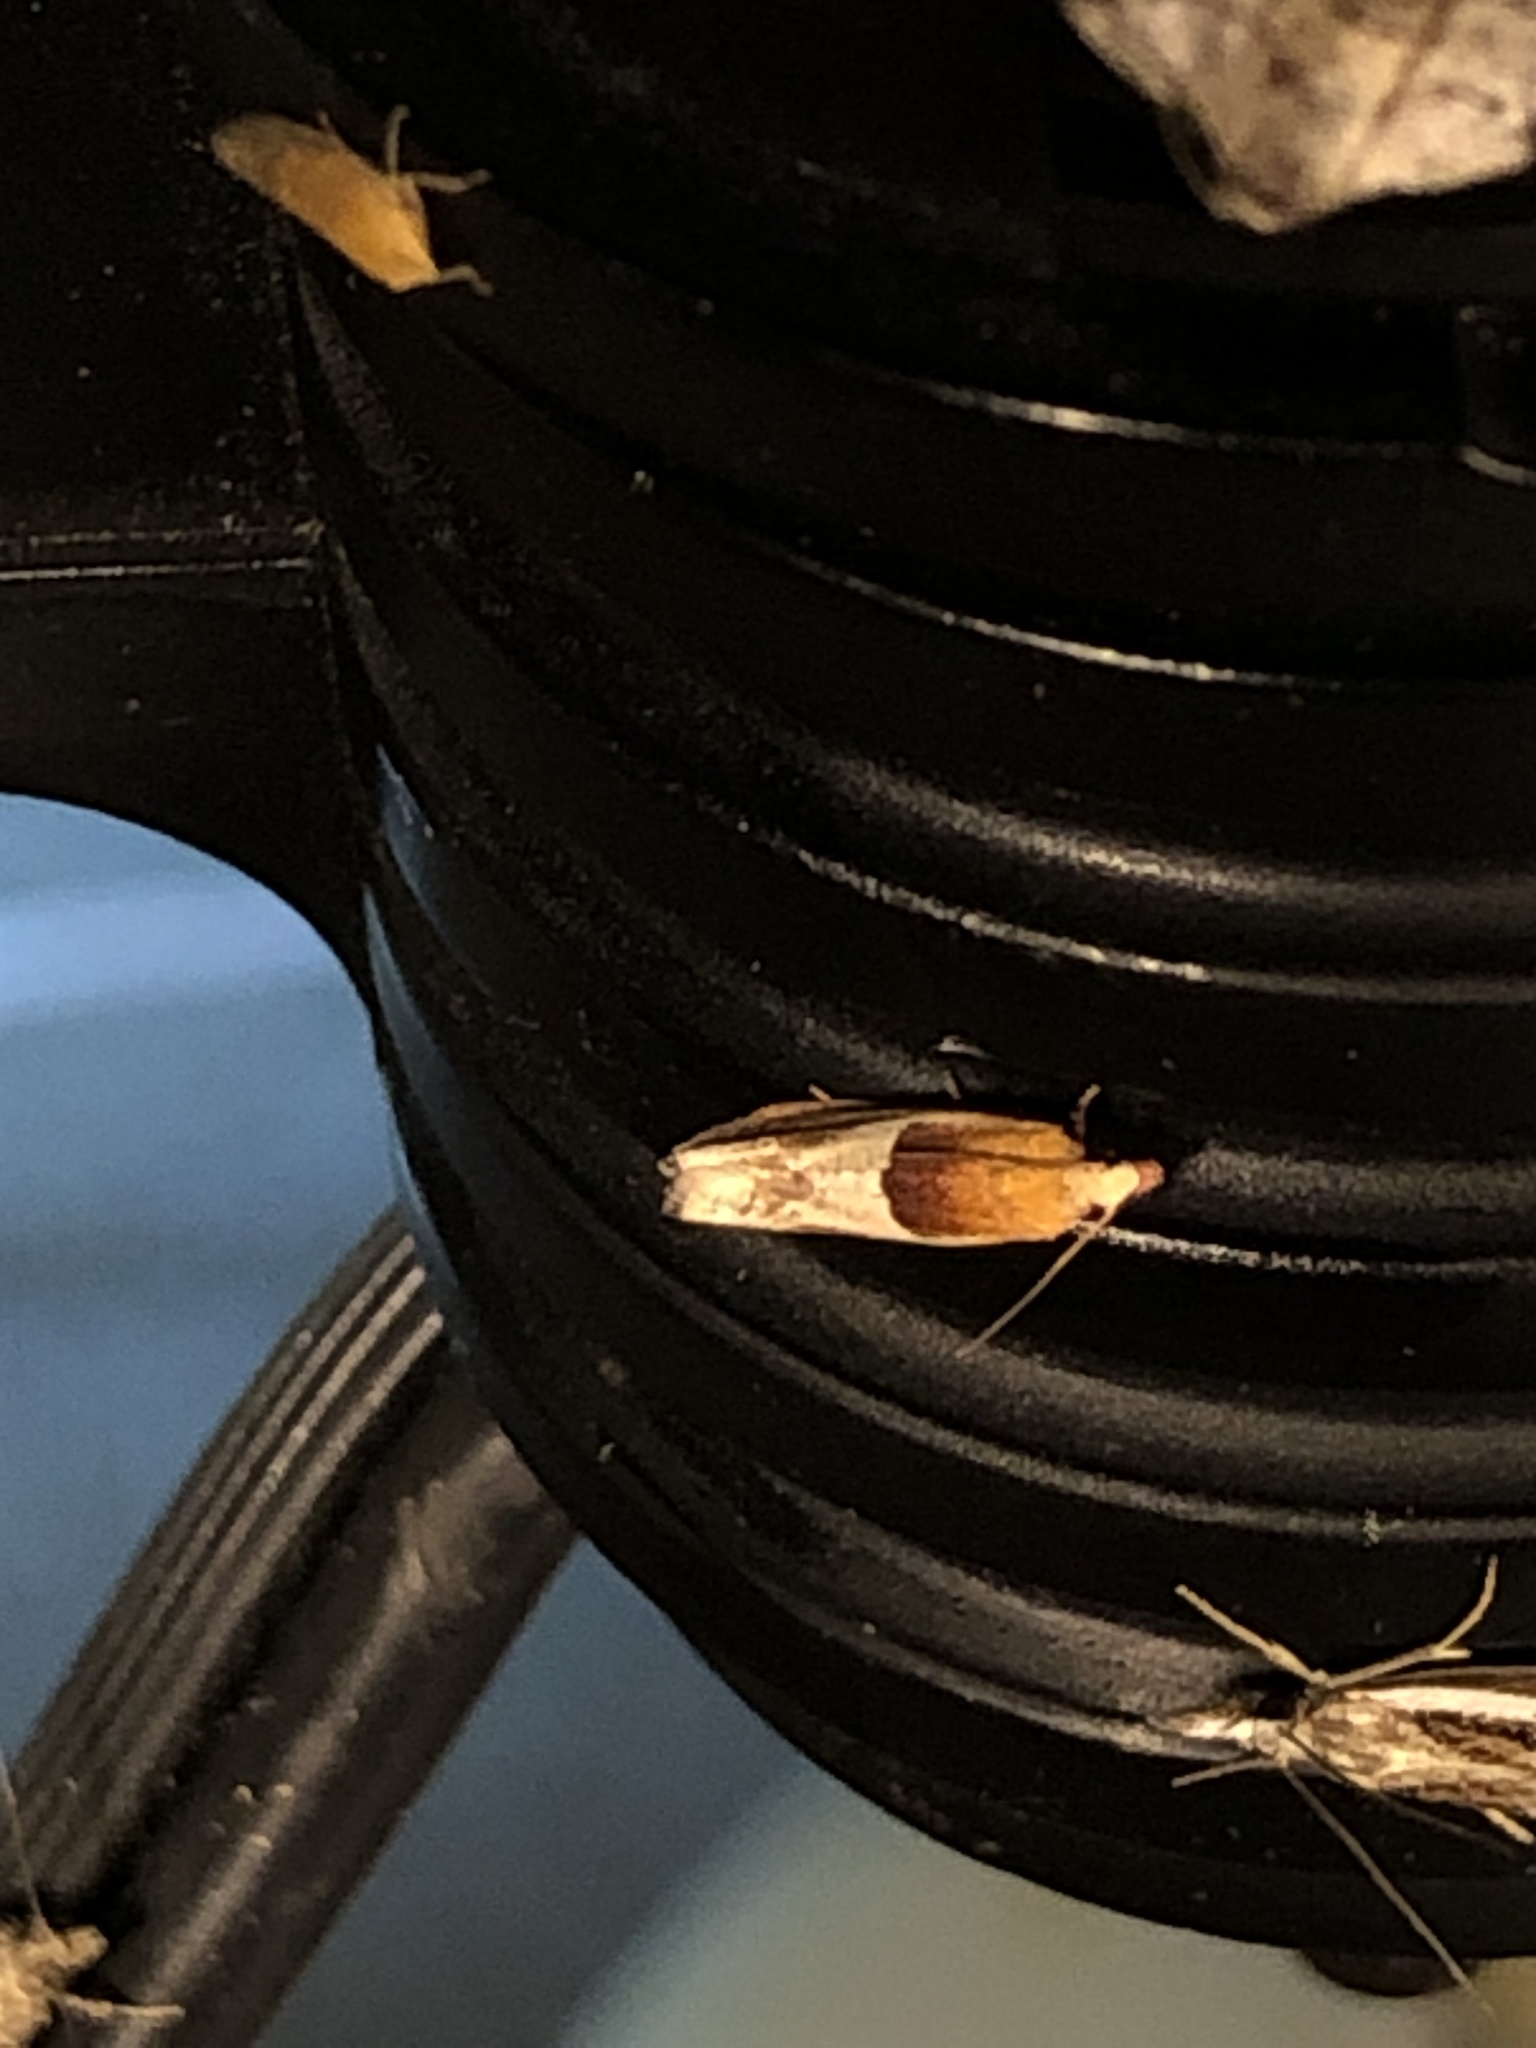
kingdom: Animalia
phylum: Arthropoda
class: Insecta
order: Lepidoptera
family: Tortricidae
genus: Epinotia
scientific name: Epinotia johnsonana
